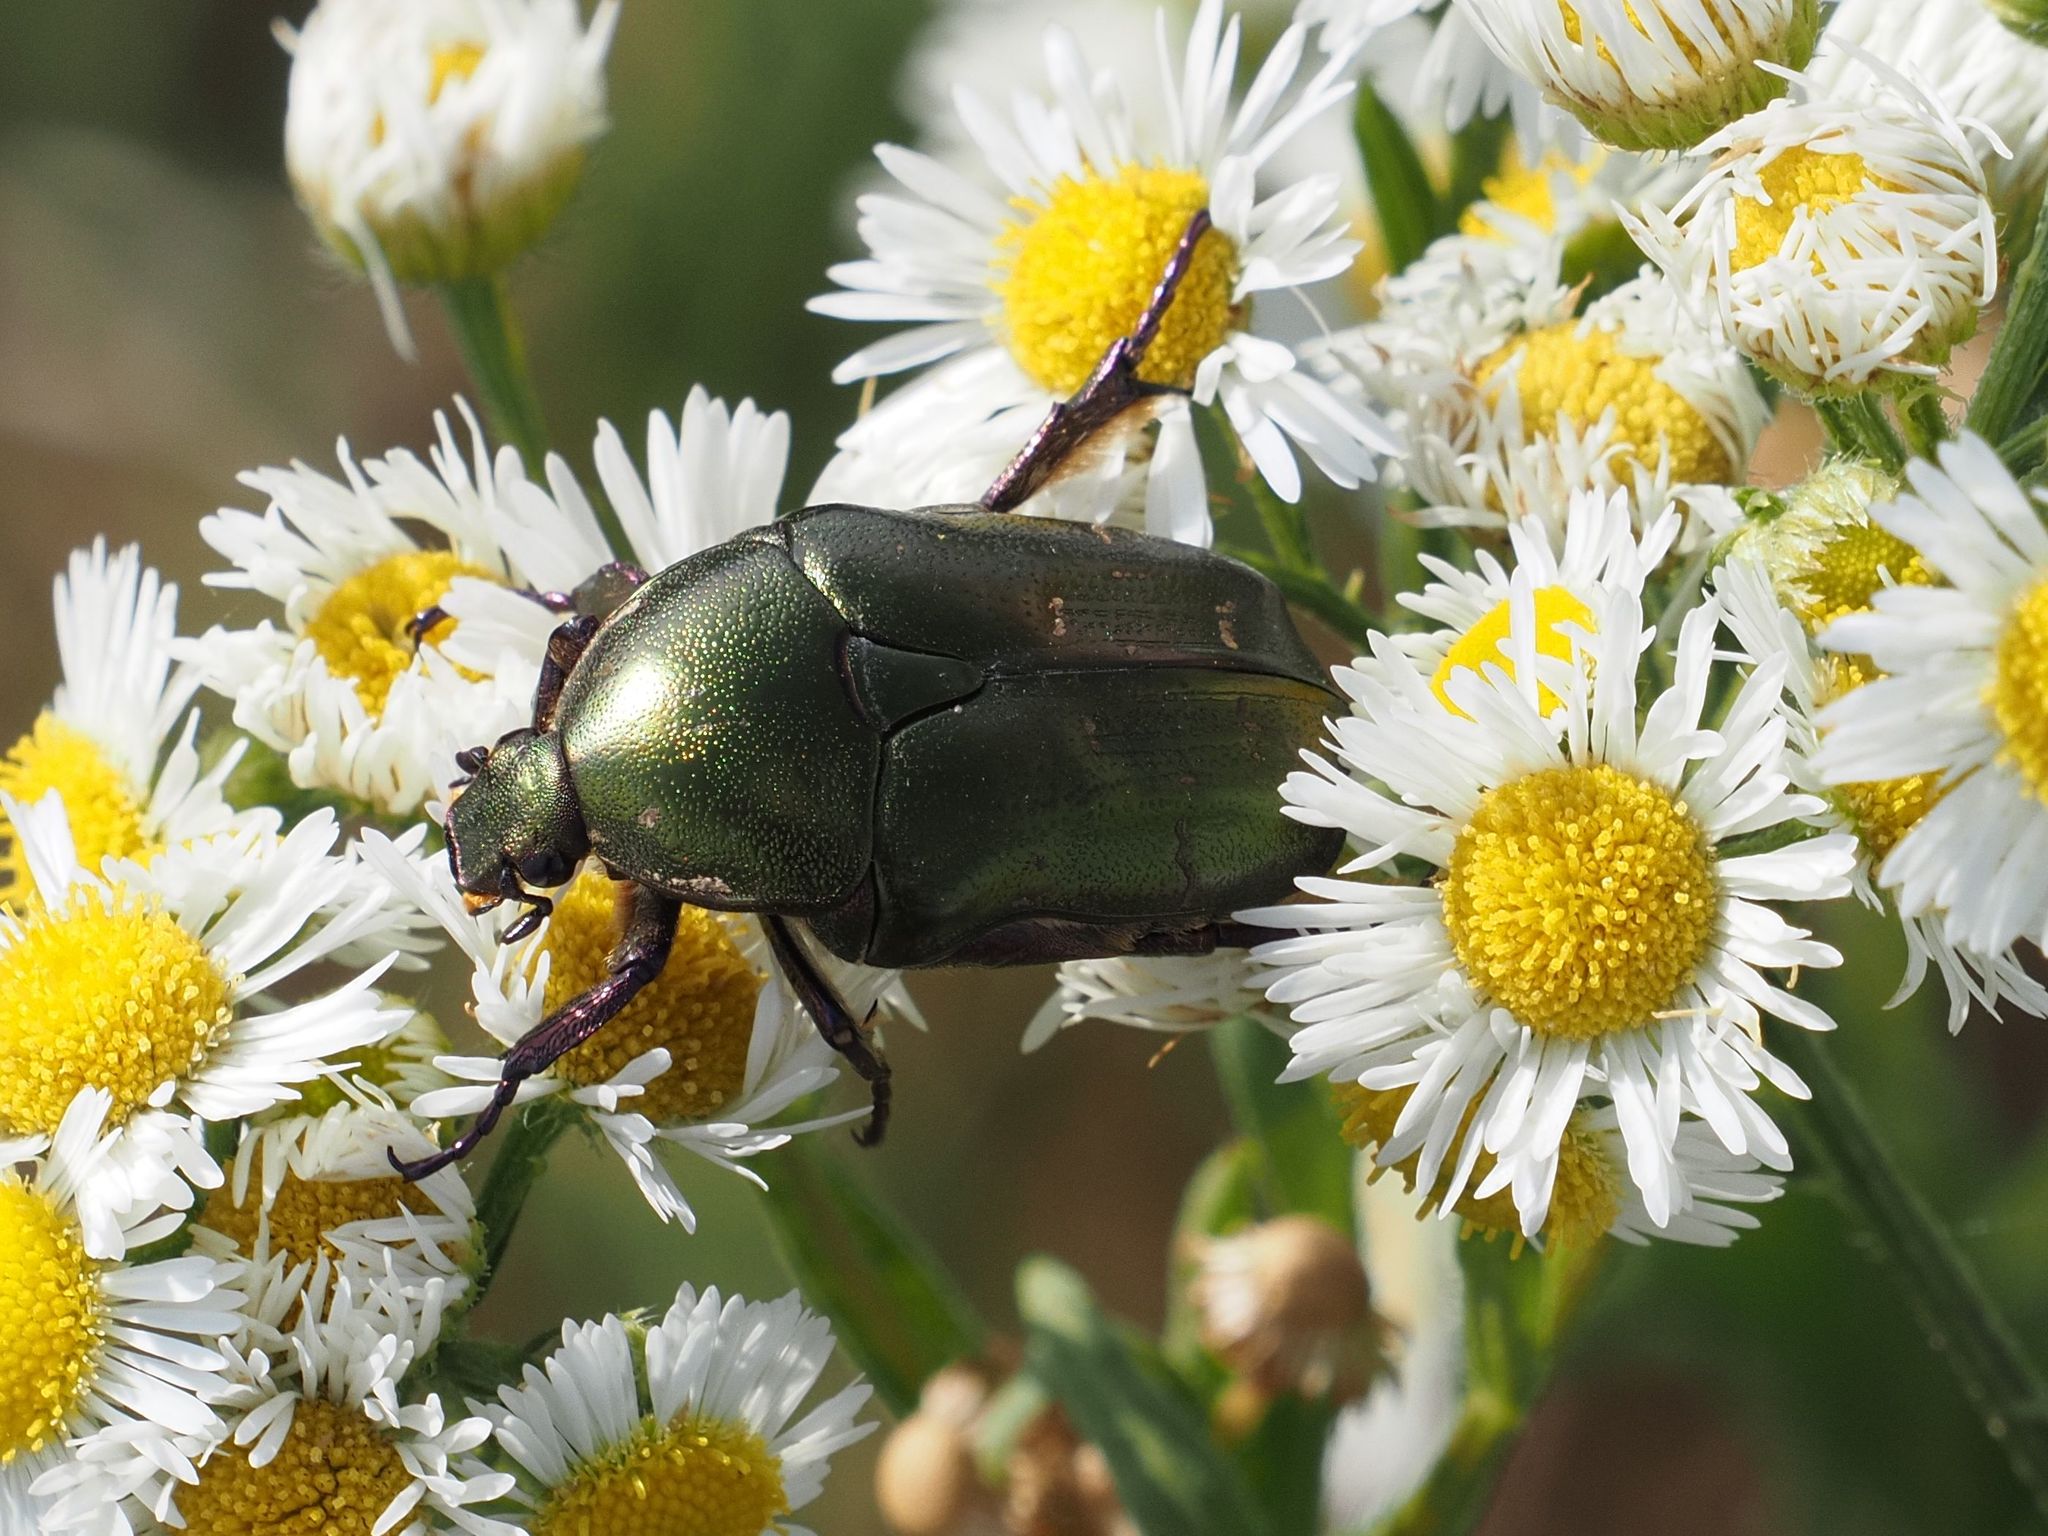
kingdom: Animalia
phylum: Arthropoda
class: Insecta
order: Coleoptera
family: Scarabaeidae
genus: Protaetia
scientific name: Protaetia cuprea
